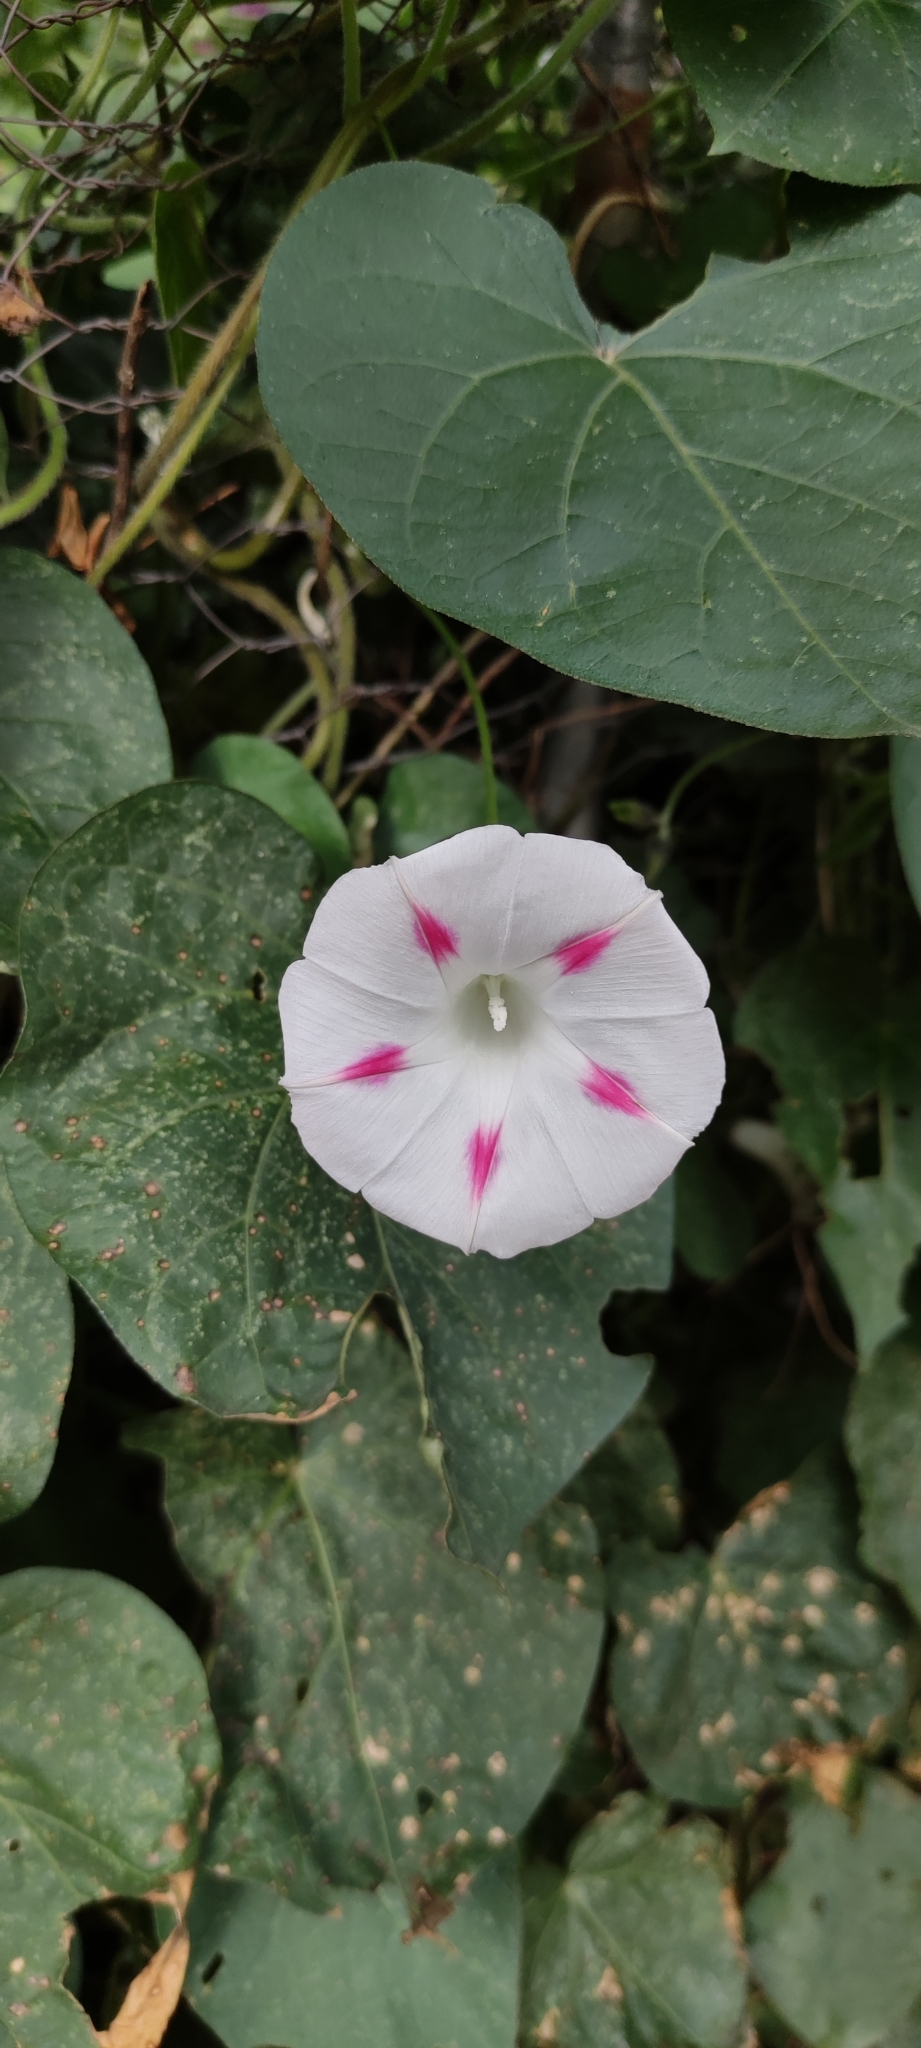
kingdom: Plantae
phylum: Tracheophyta
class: Magnoliopsida
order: Solanales
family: Convolvulaceae
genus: Ipomoea
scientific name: Ipomoea purpurea
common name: Common morning-glory
